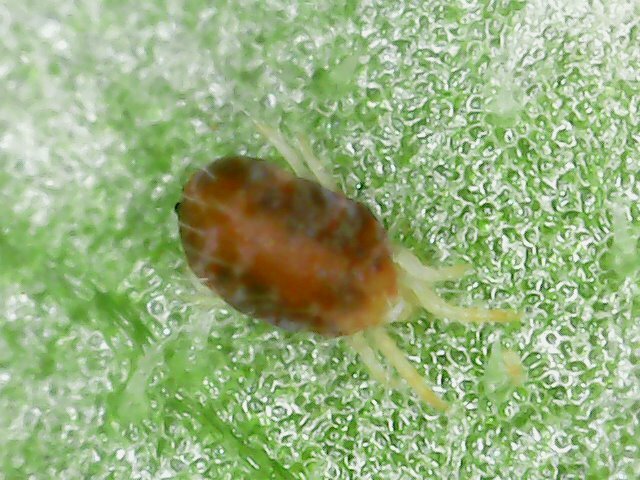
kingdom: Animalia
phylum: Arthropoda
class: Arachnida
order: Trombidiformes
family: Tetranychidae
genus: Tetranychus
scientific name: Tetranychus urticae
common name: Carmine spider mite
